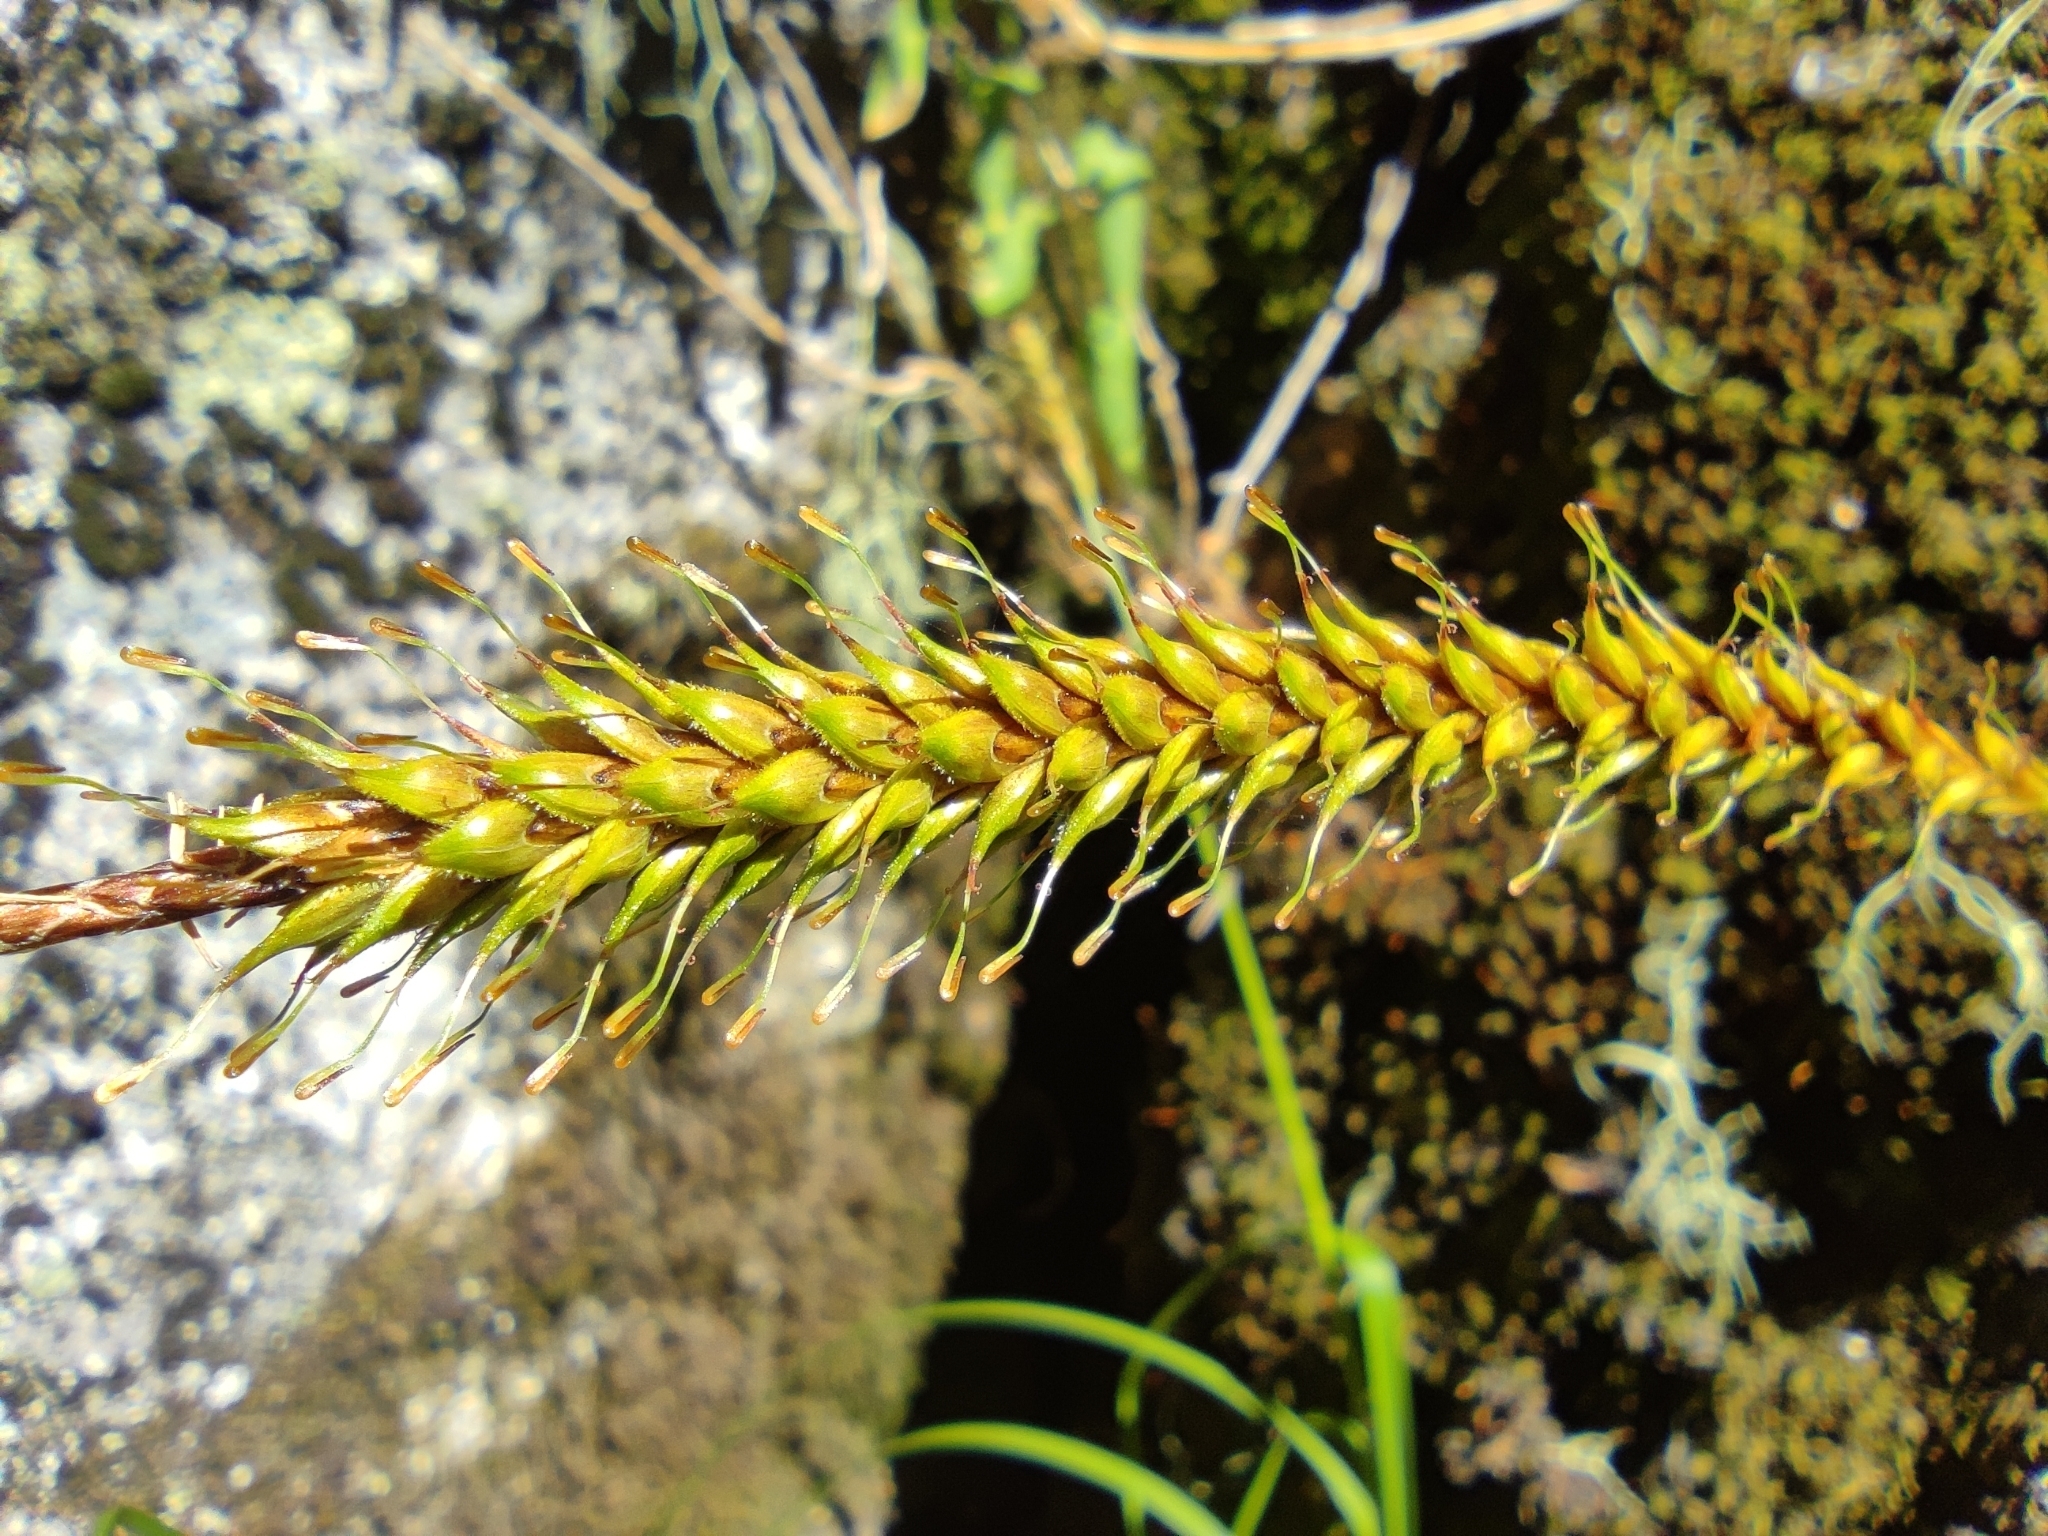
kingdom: Plantae
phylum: Tracheophyta
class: Liliopsida
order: Poales
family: Cyperaceae
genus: Carex
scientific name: Carex salticola
